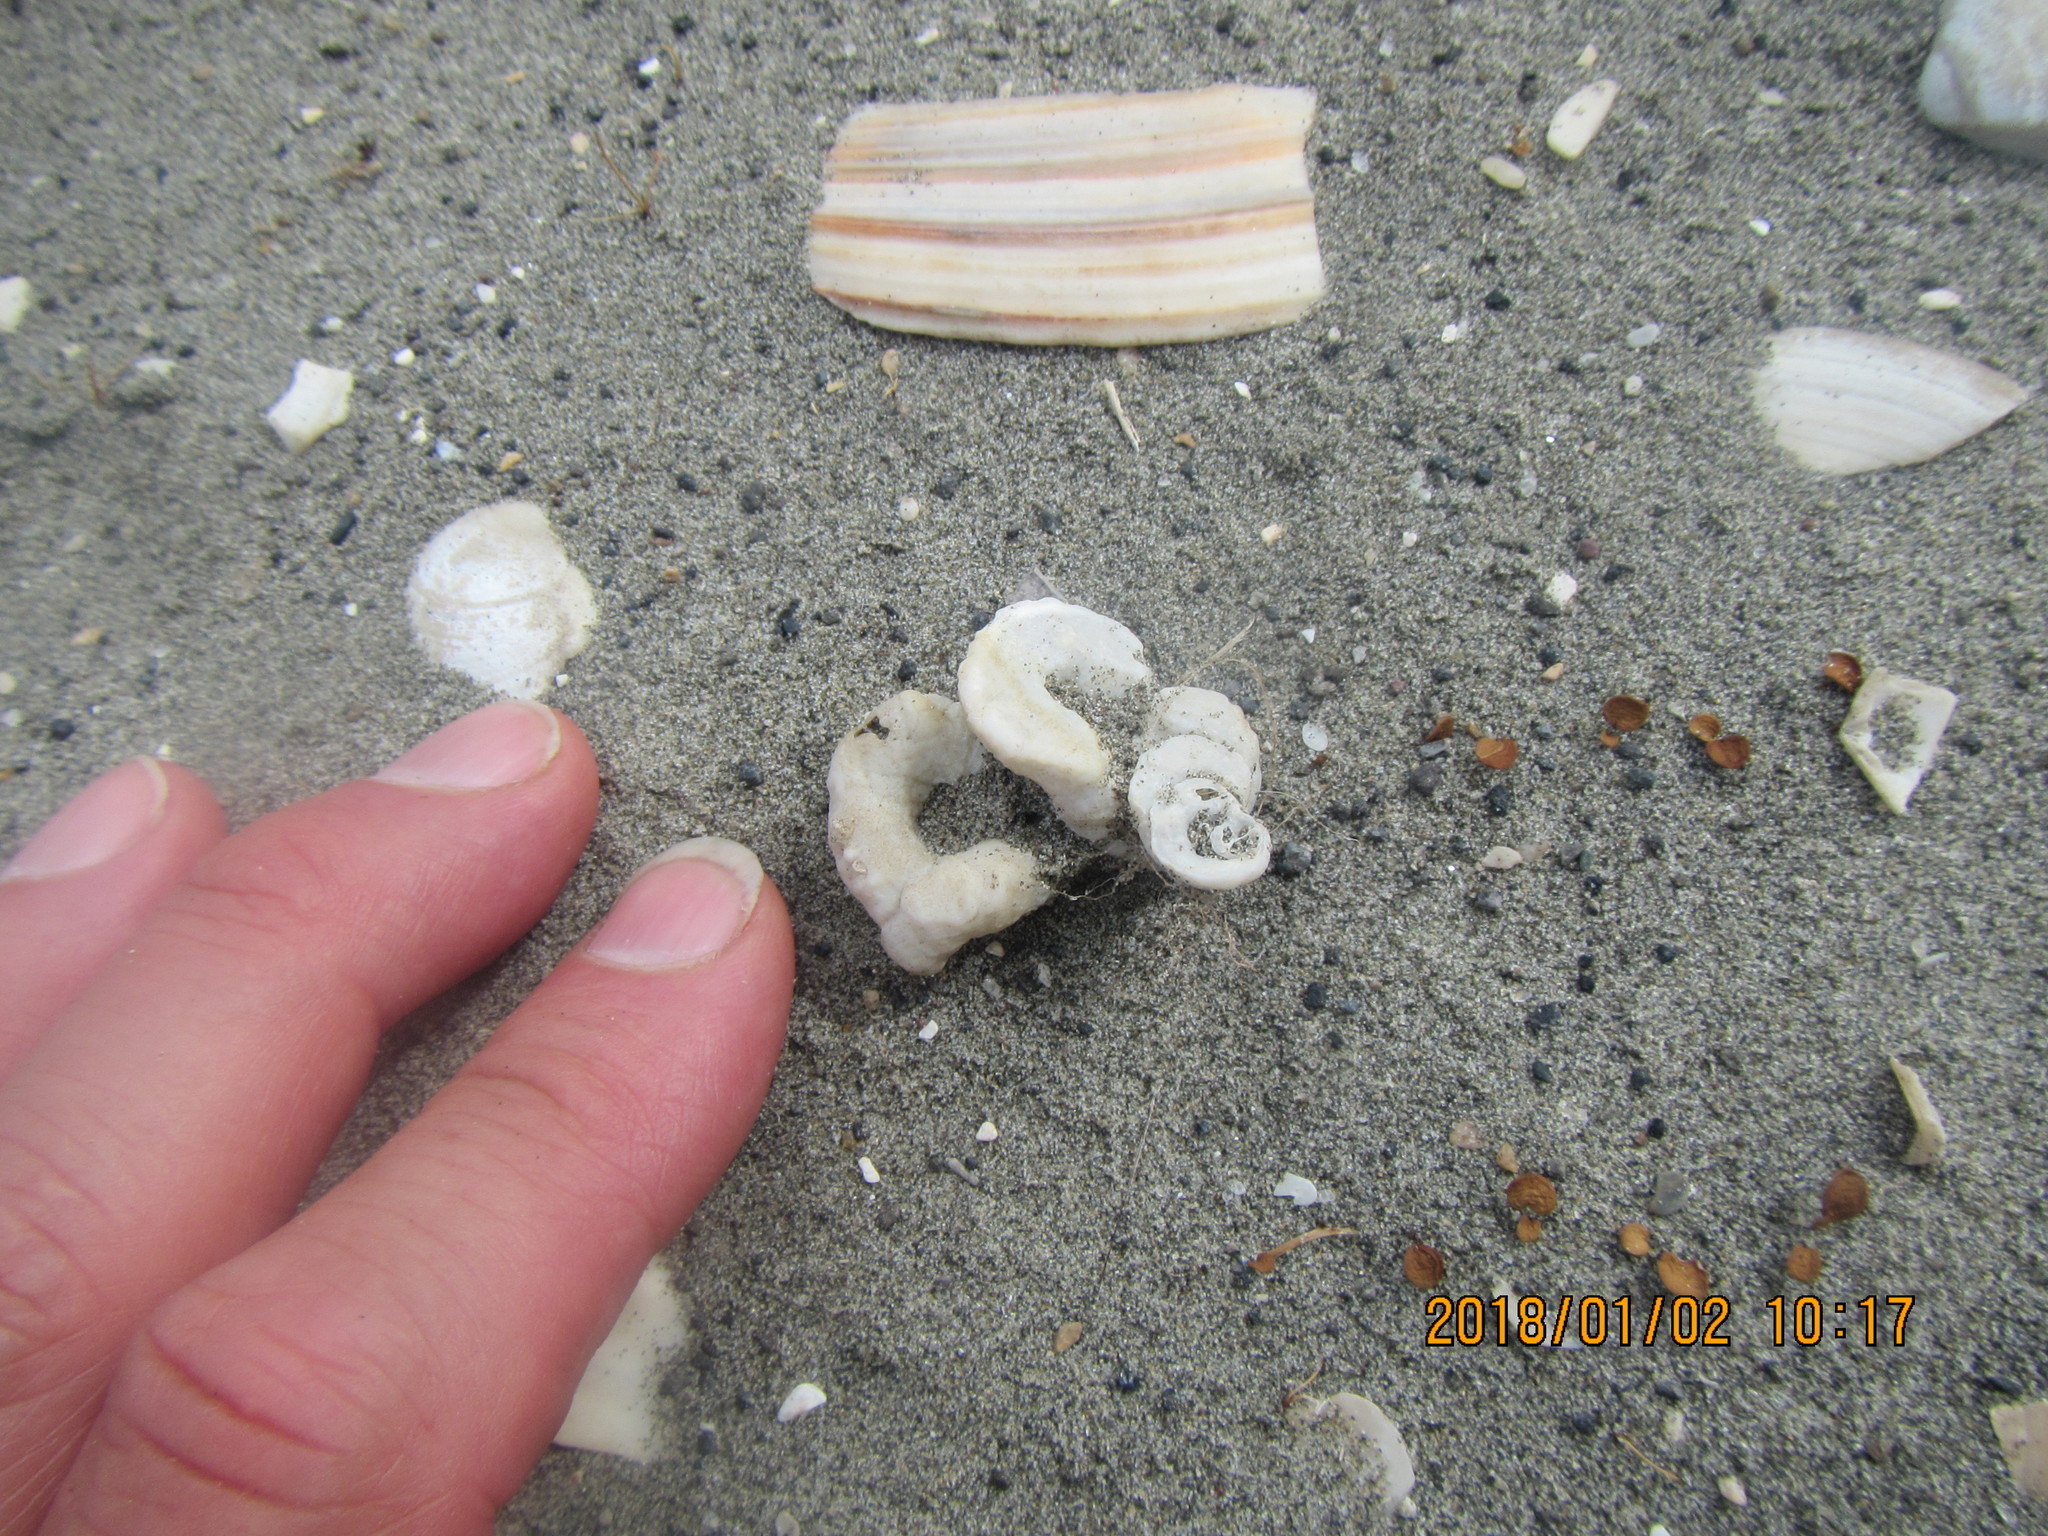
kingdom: Animalia
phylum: Mollusca
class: Gastropoda
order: Littorinimorpha
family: Vermetidae
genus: Thylacodes
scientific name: Thylacodes zelandicus
